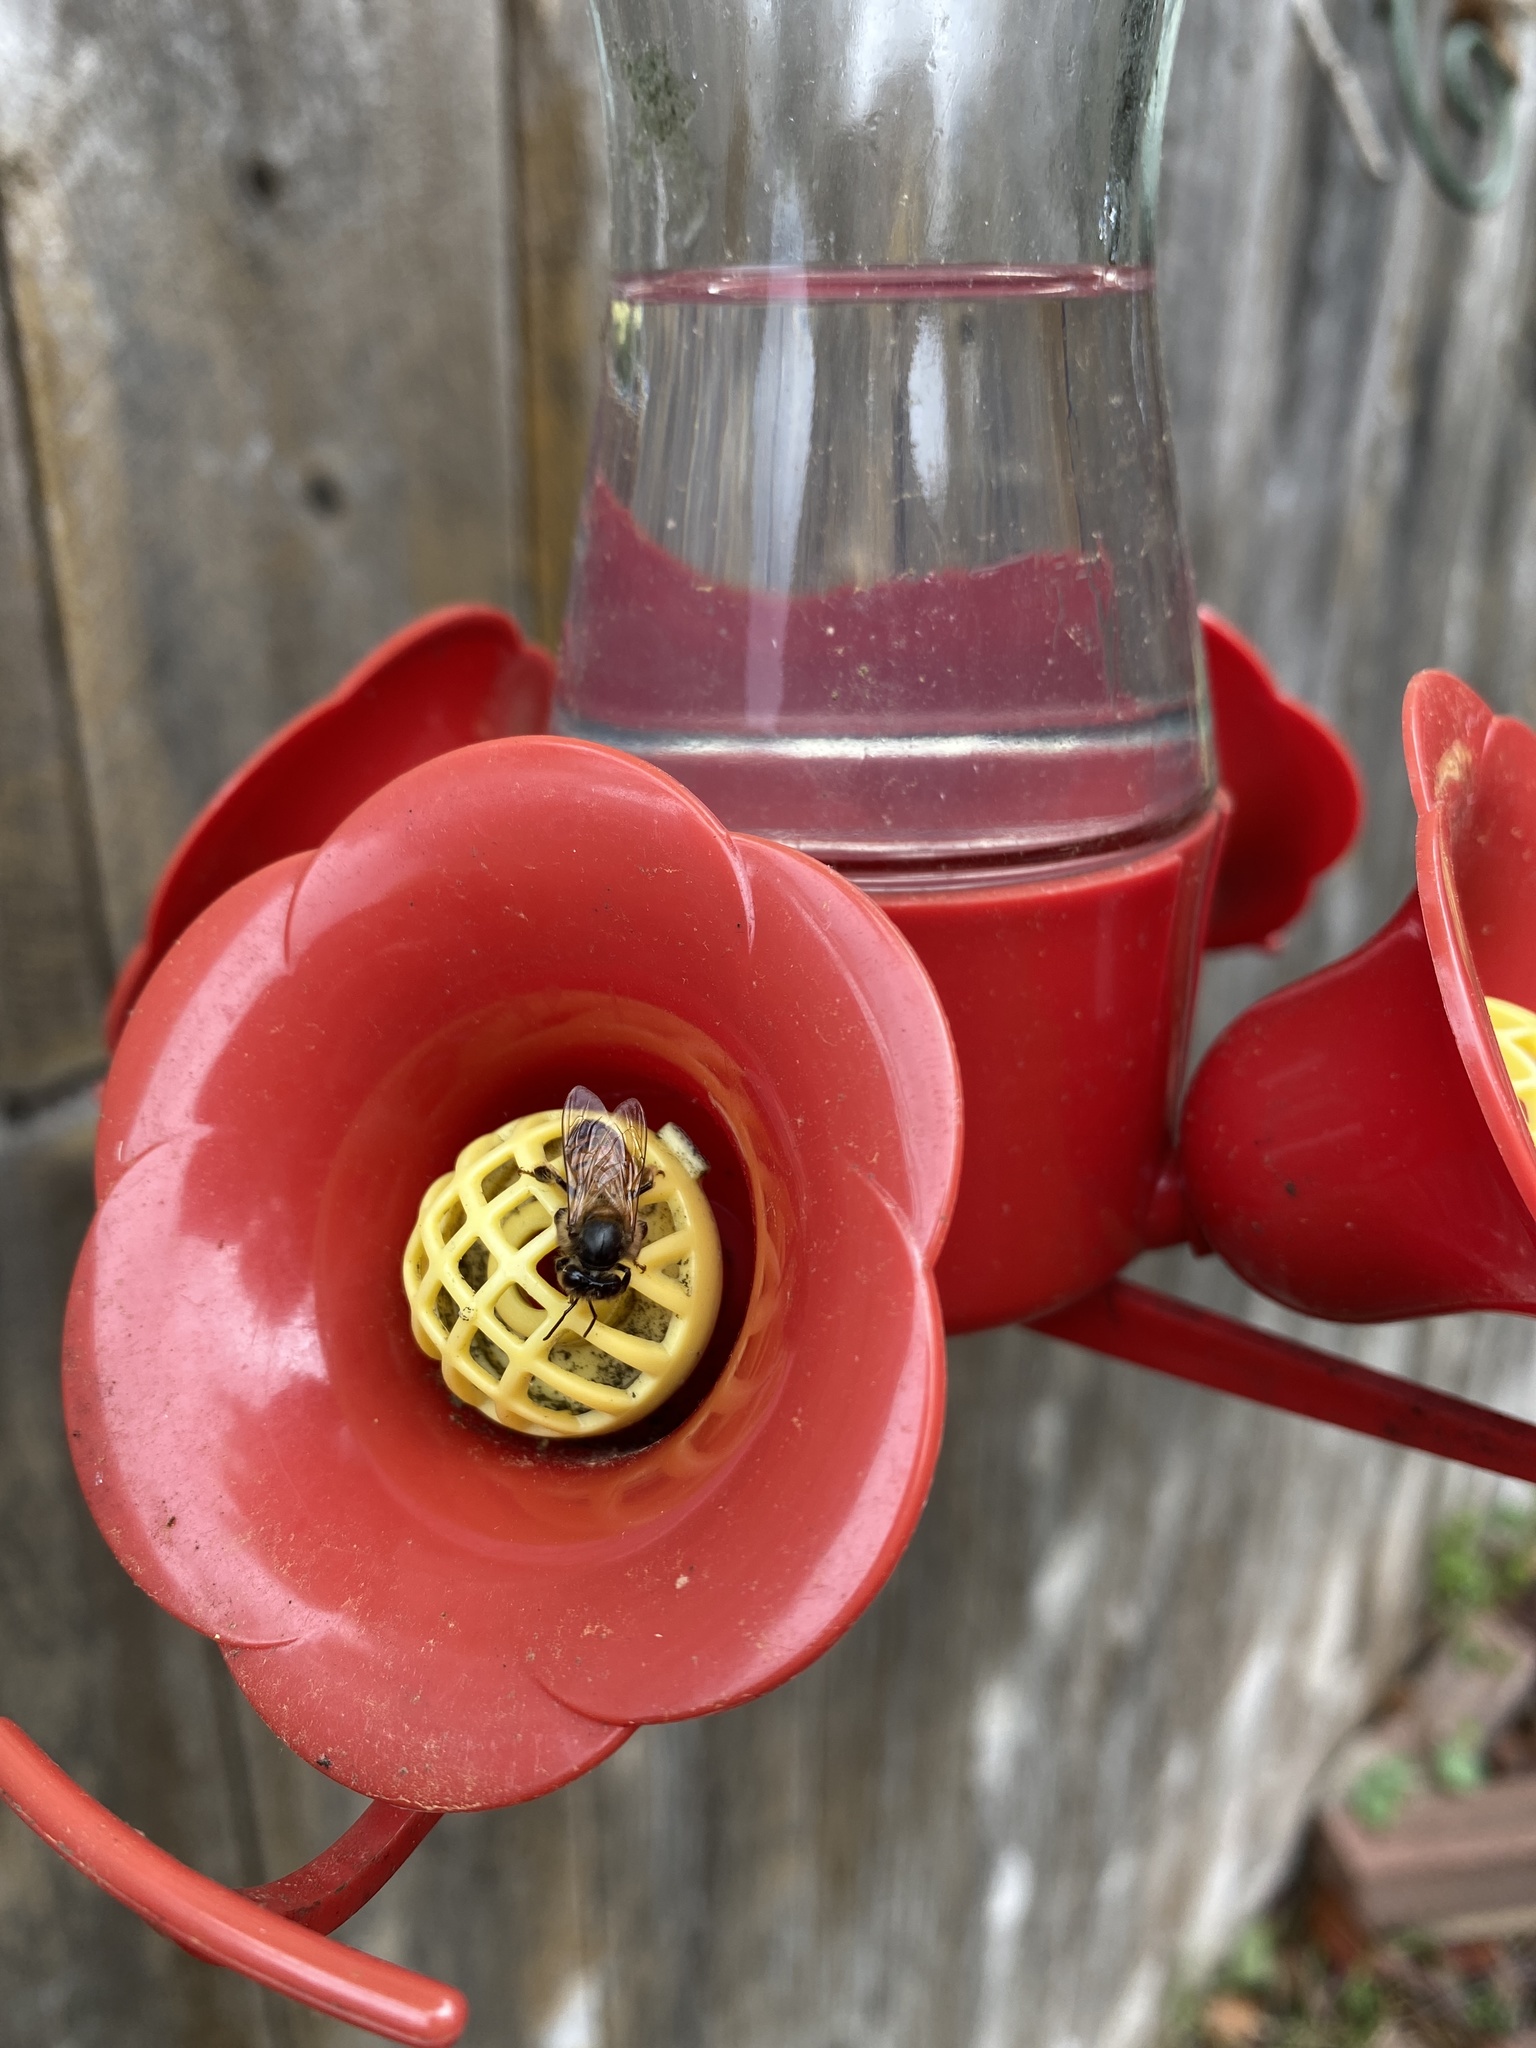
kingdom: Animalia
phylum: Arthropoda
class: Insecta
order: Hymenoptera
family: Apidae
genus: Apis
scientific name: Apis mellifera
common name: Honey bee
